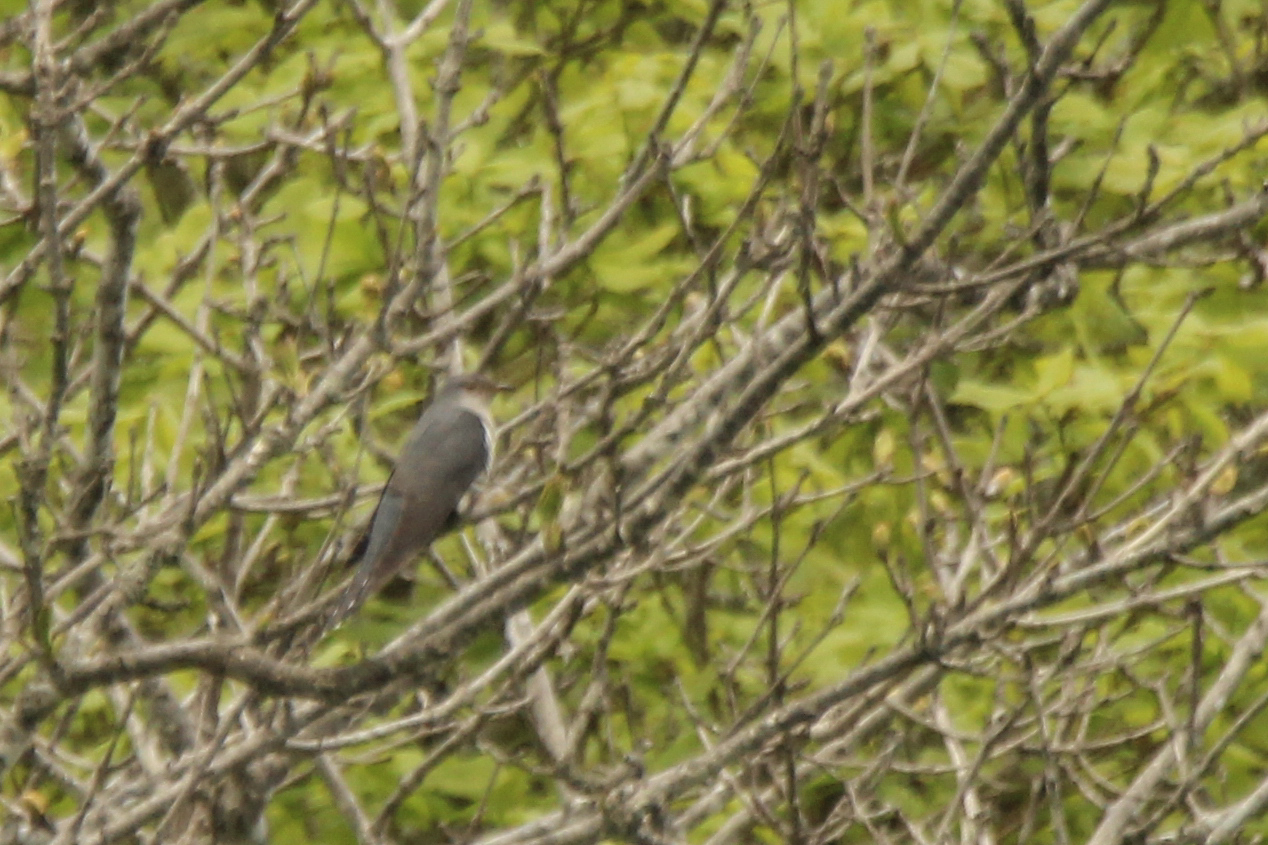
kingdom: Animalia
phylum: Chordata
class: Aves
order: Cuculiformes
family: Cuculidae
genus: Cuculus
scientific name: Cuculus poliocephalus
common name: Lesser cuckoo
